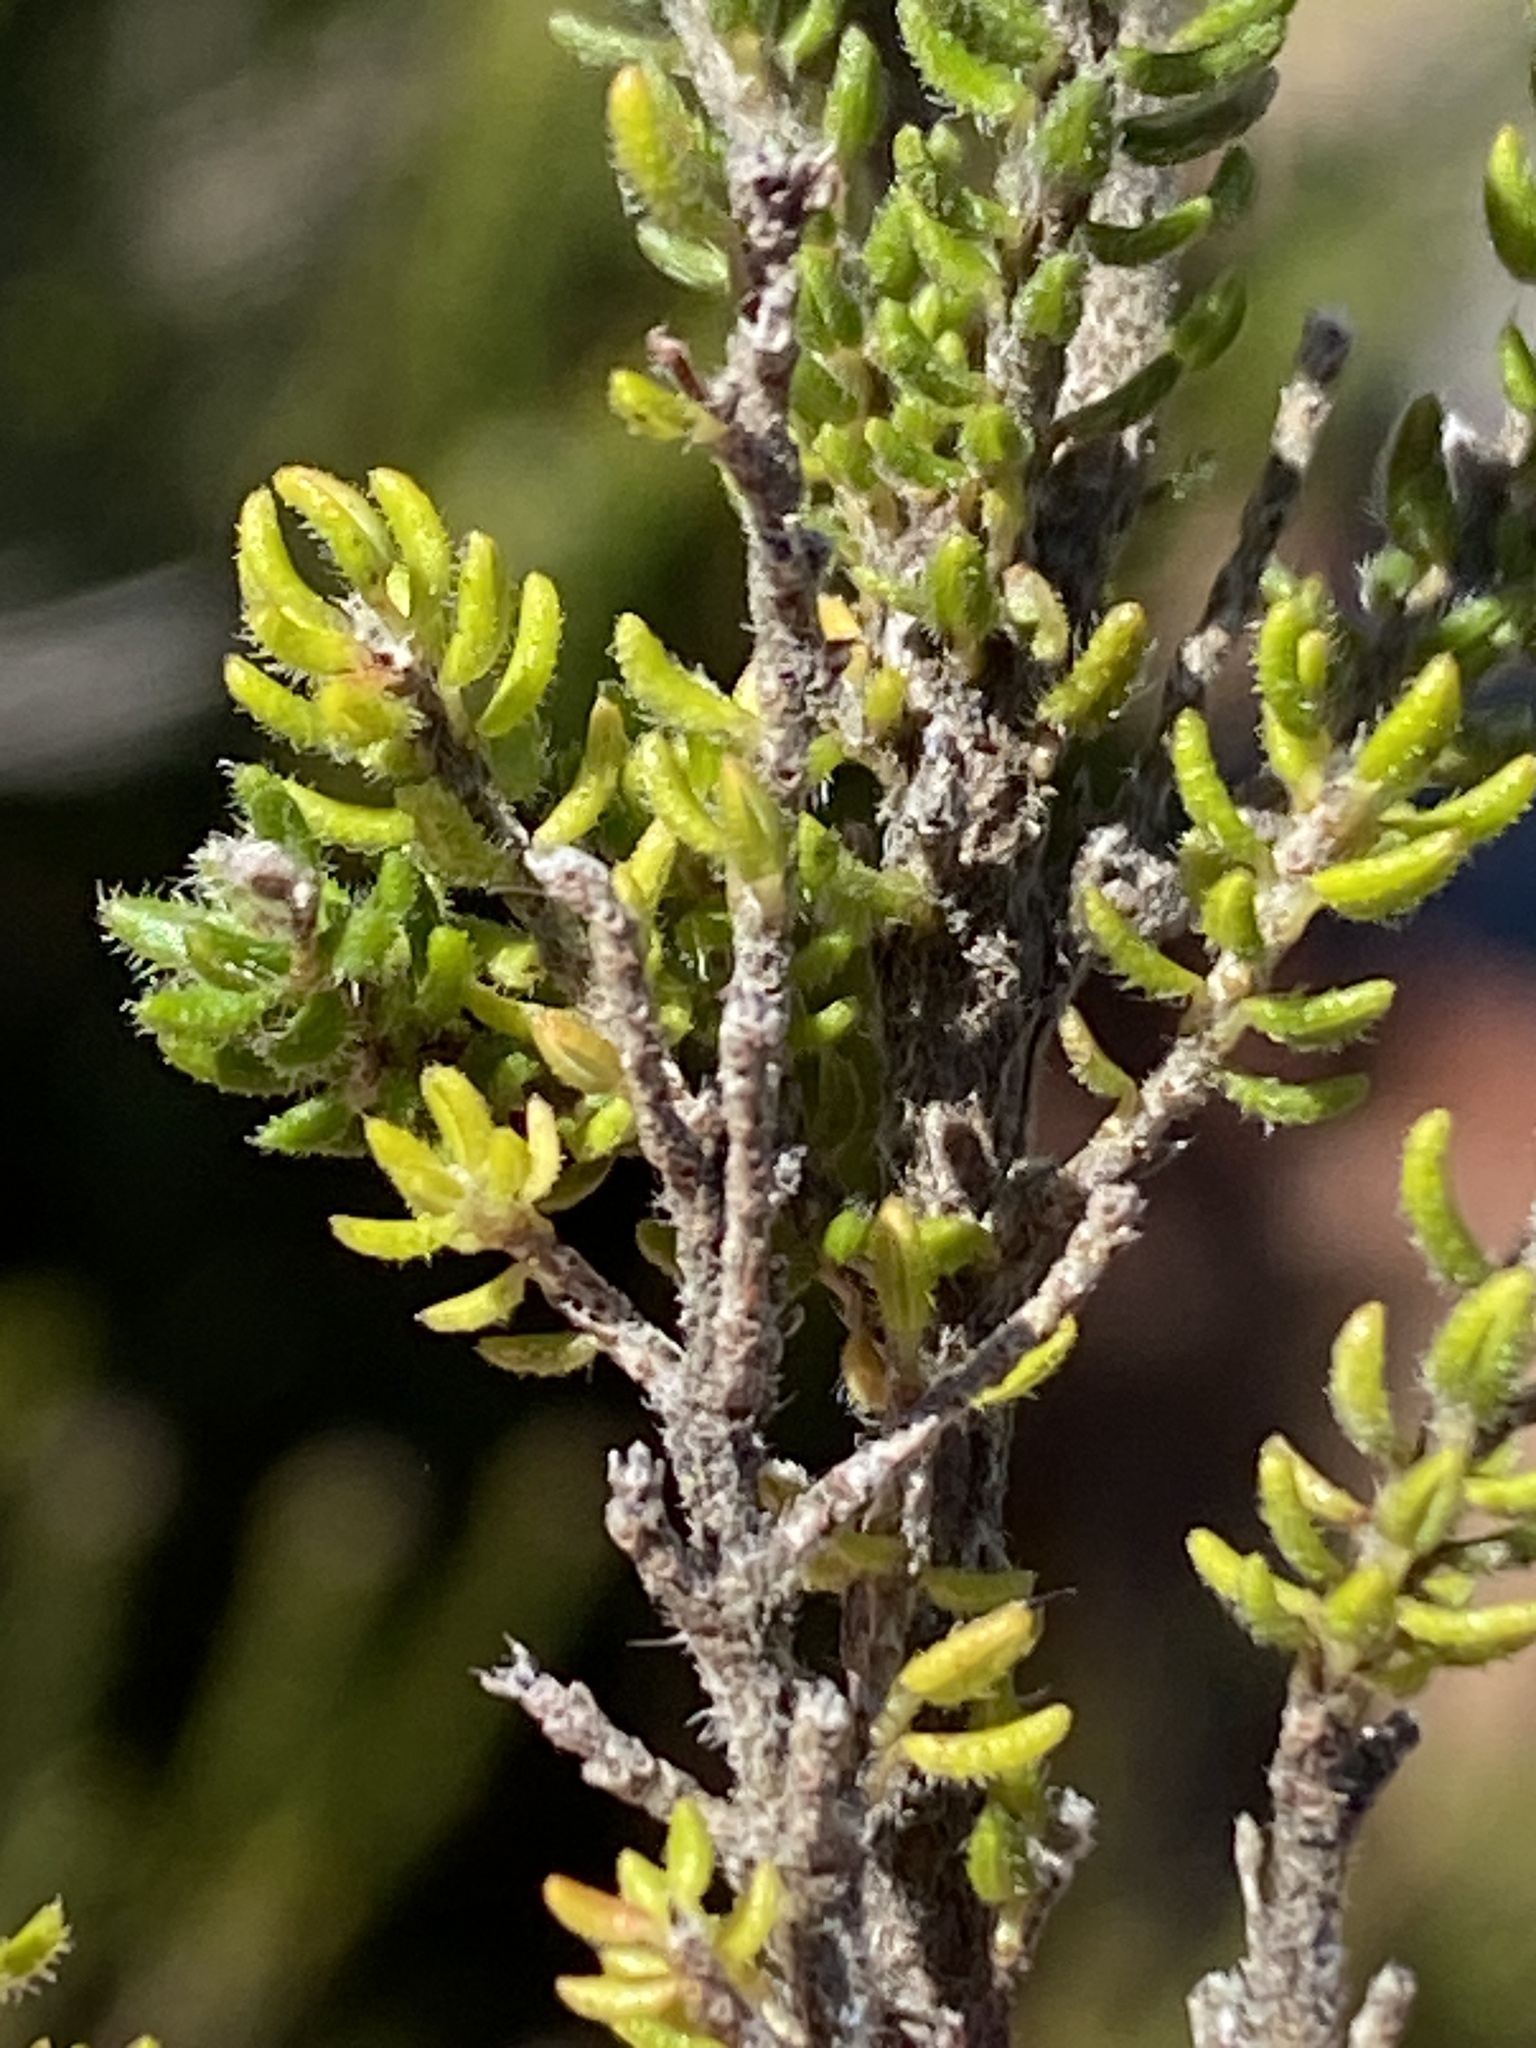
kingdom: Plantae
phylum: Tracheophyta
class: Magnoliopsida
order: Ericales
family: Ericaceae
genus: Erica
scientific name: Erica zitzikammensis
